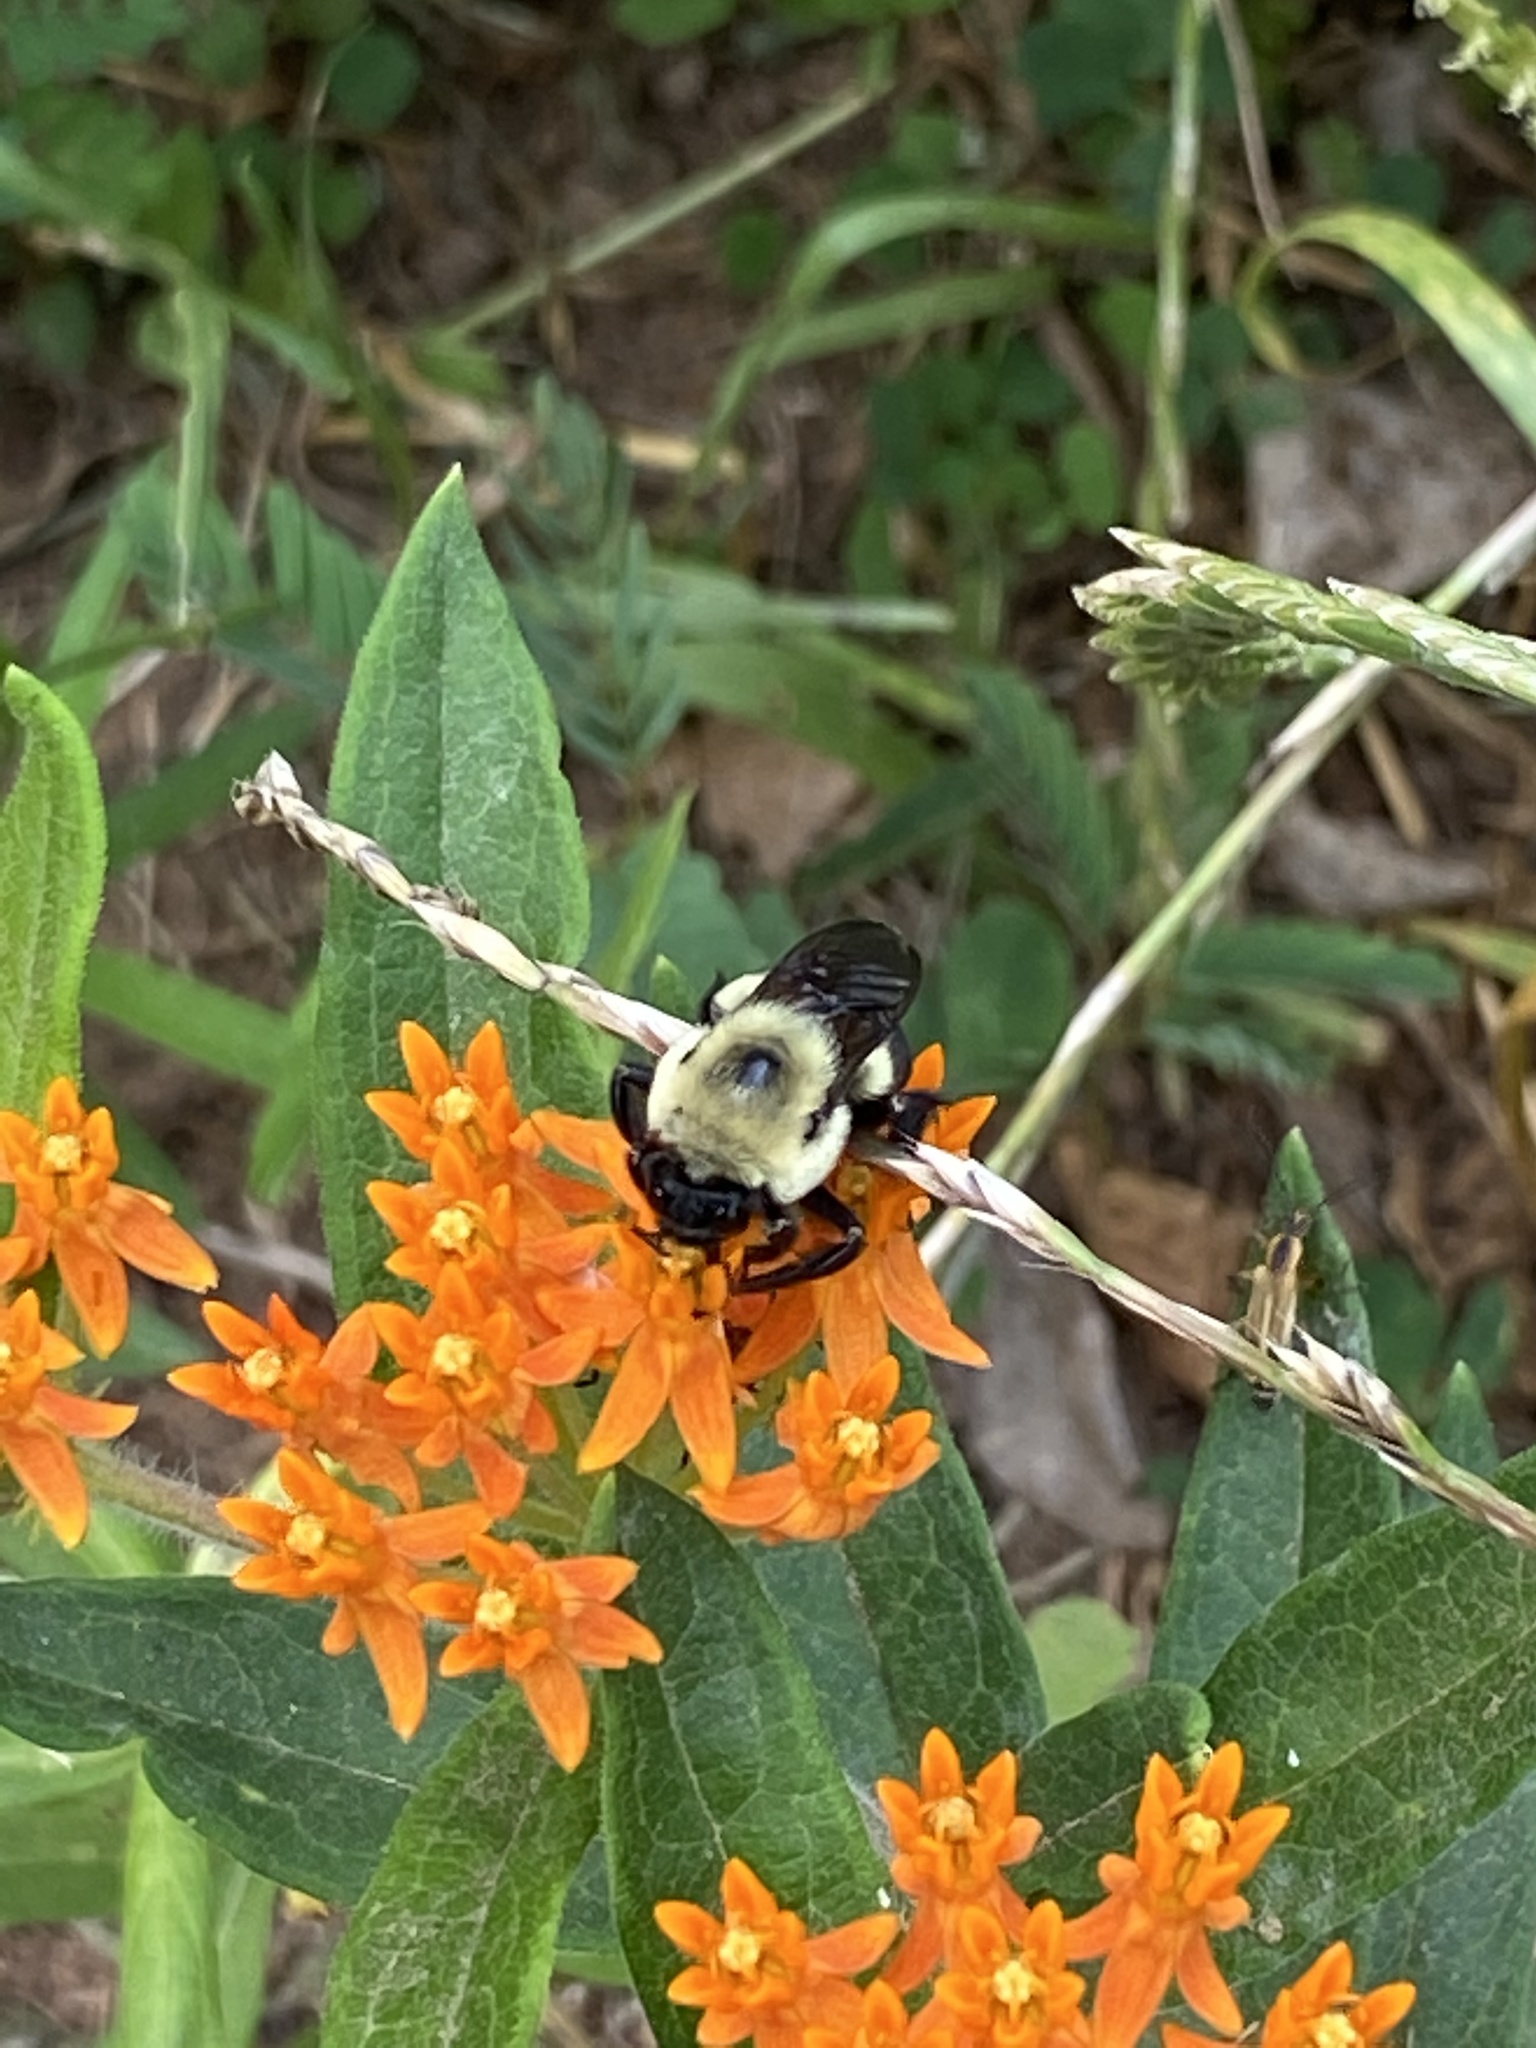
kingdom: Animalia
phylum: Arthropoda
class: Insecta
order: Hymenoptera
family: Apidae
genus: Bombus
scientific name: Bombus griseocollis
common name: Brown-belted bumble bee
